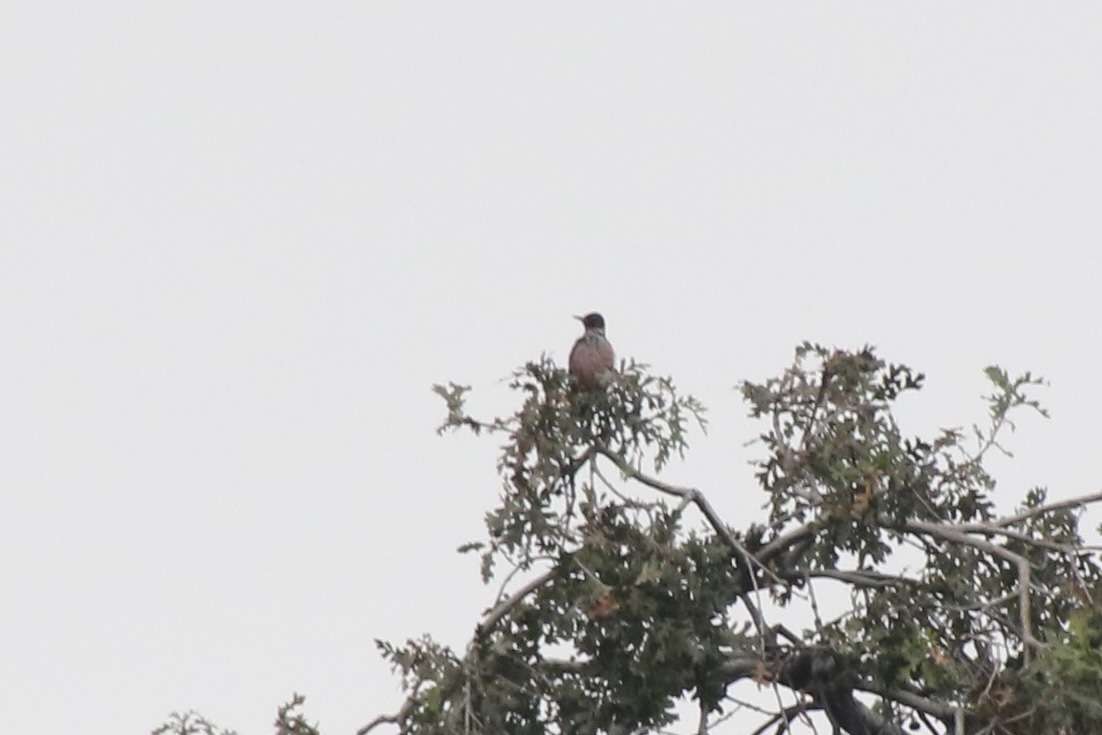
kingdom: Animalia
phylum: Chordata
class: Aves
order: Piciformes
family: Picidae
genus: Melanerpes
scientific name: Melanerpes lewis
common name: Lewis's woodpecker
